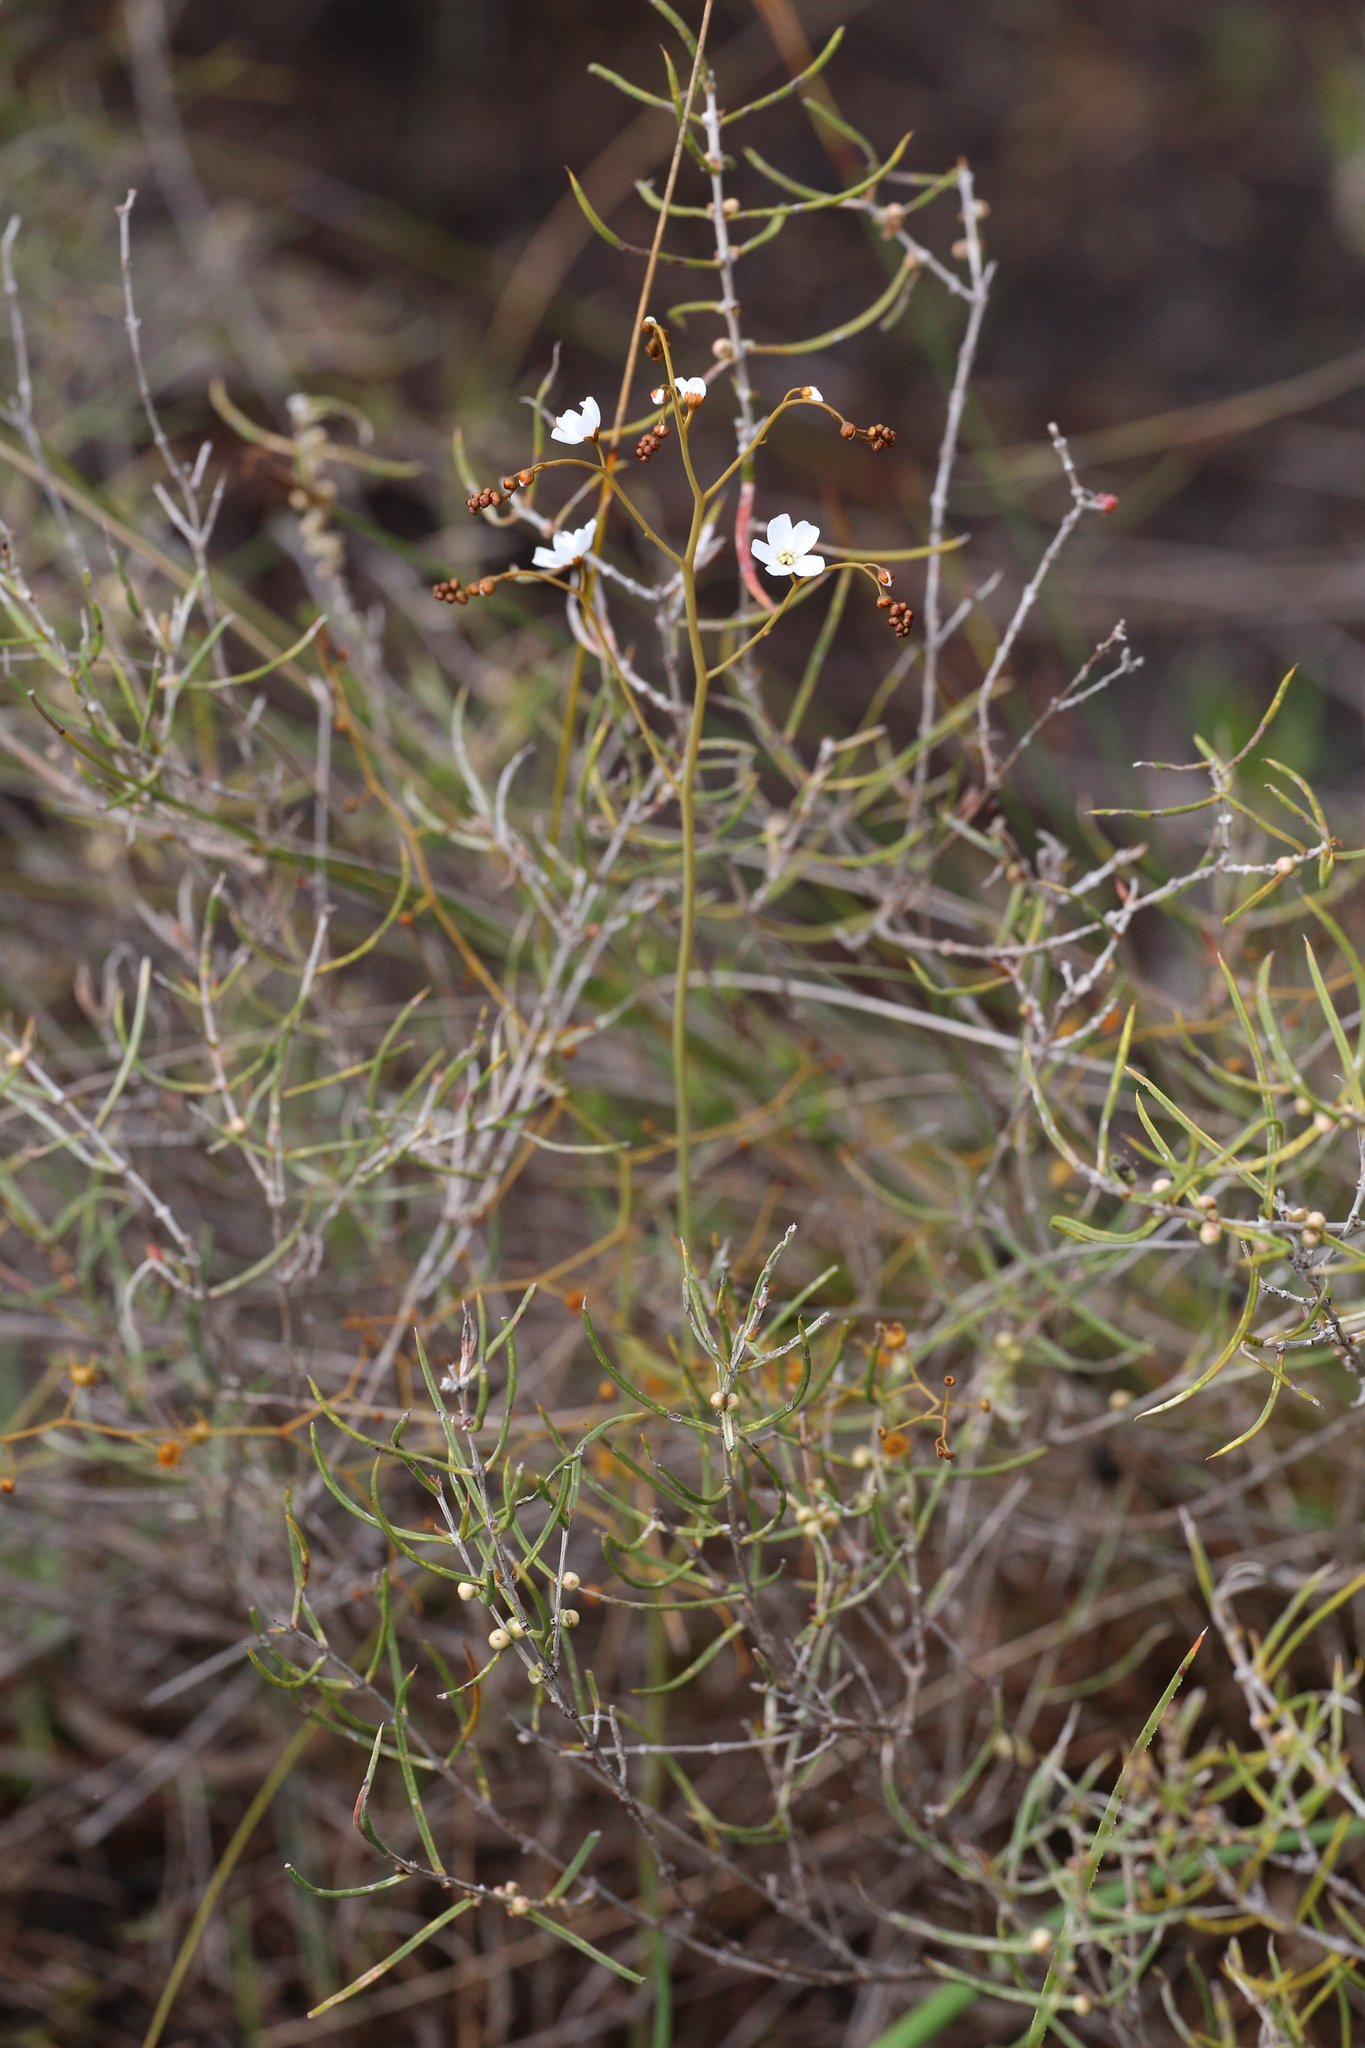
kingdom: Plantae
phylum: Tracheophyta
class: Magnoliopsida
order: Caryophyllales
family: Droseraceae
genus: Drosera
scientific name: Drosera gigantea
